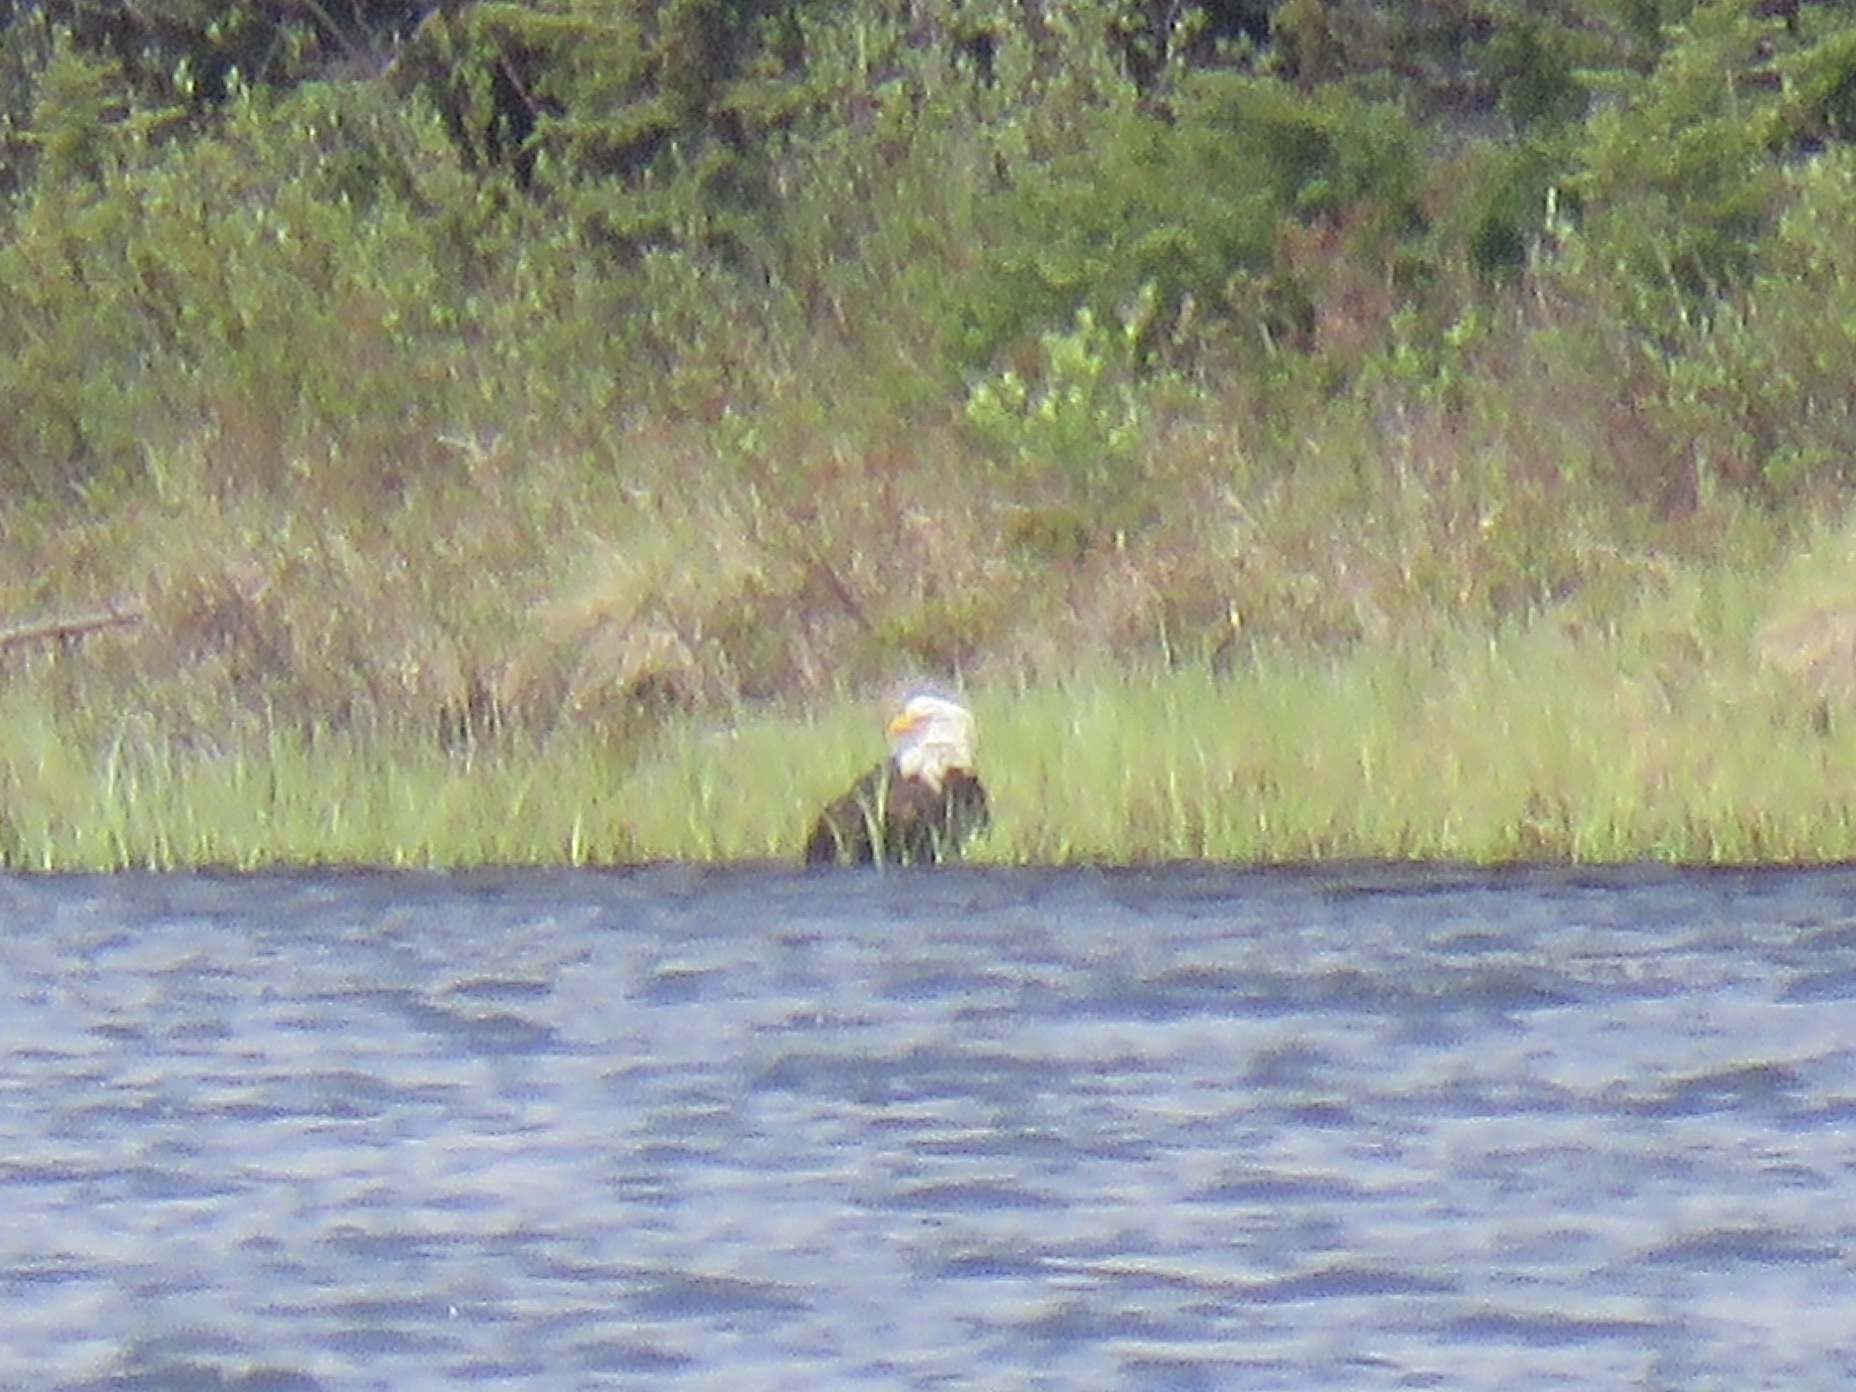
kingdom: Animalia
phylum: Chordata
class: Aves
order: Accipitriformes
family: Accipitridae
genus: Haliaeetus
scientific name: Haliaeetus leucocephalus
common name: Bald eagle
